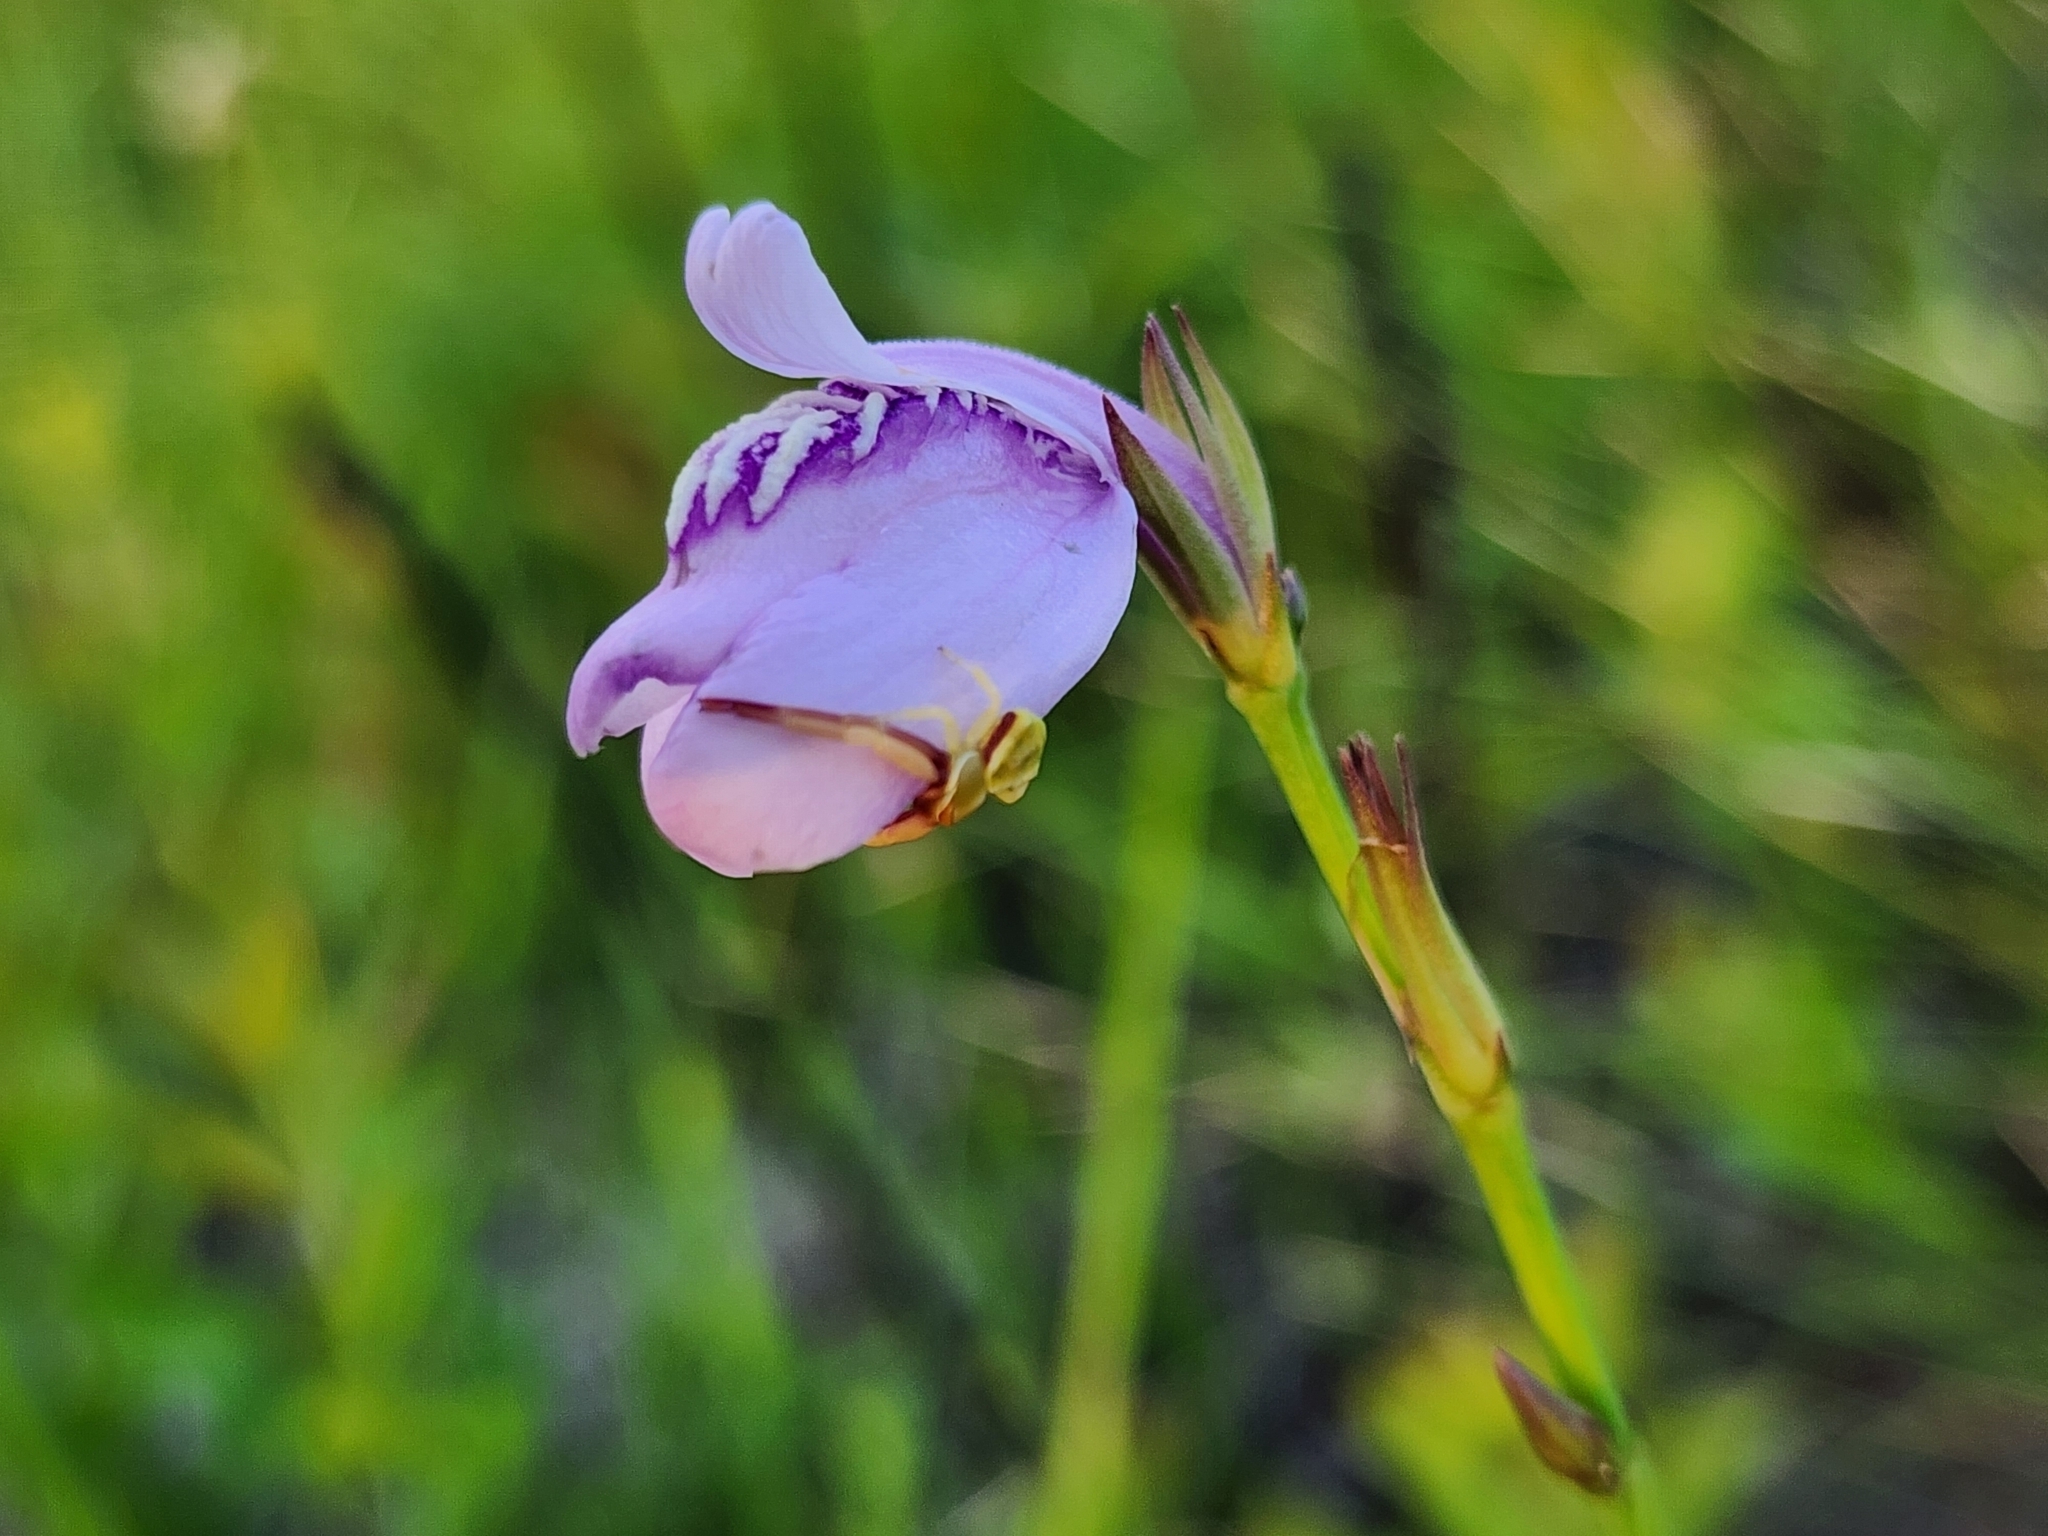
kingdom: Animalia
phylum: Arthropoda
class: Arachnida
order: Araneae
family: Thomisidae
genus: Misumenoides
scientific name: Misumenoides formosipes
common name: White-banded crab spider
